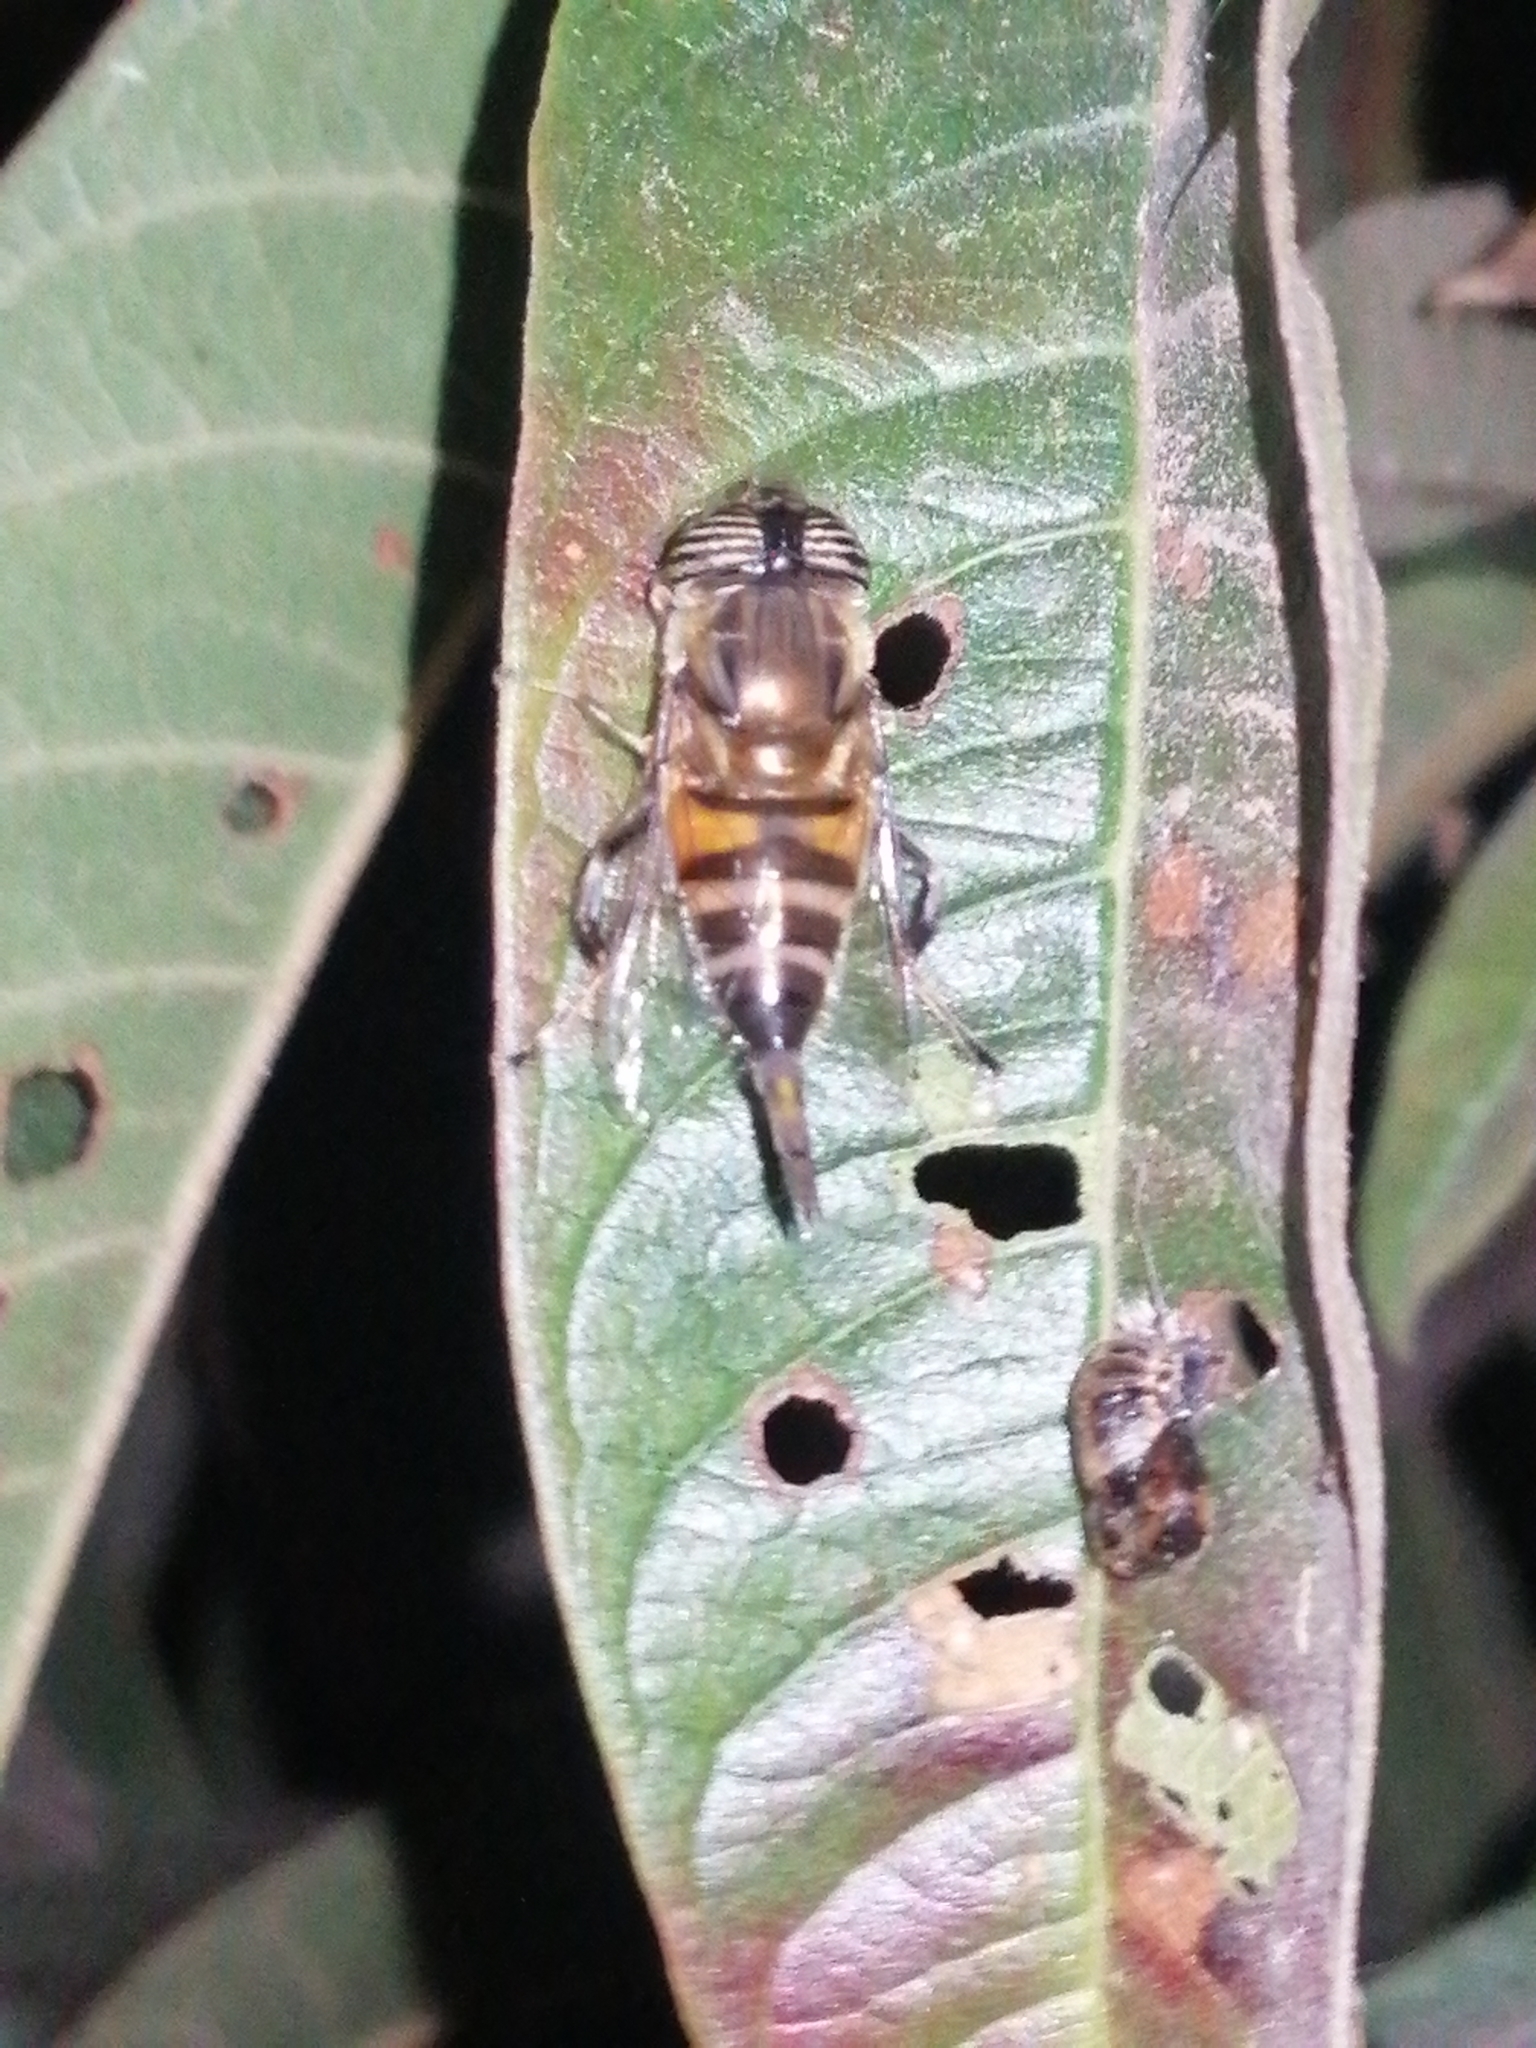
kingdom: Animalia
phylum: Arthropoda
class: Insecta
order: Diptera
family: Syrphidae
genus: Eristalinus
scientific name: Eristalinus taeniops
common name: Syrphid fly
